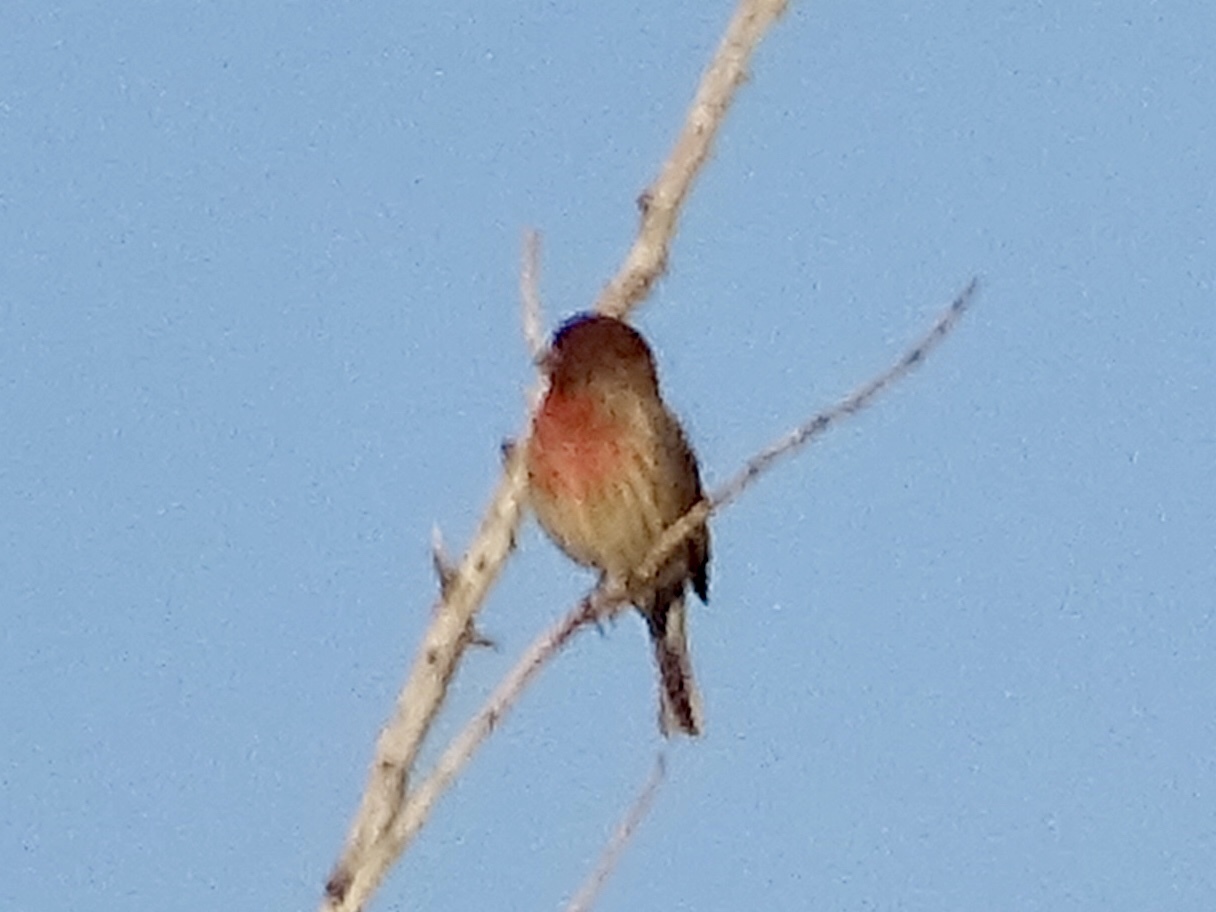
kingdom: Animalia
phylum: Chordata
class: Aves
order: Passeriformes
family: Fringillidae
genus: Haemorhous
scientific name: Haemorhous mexicanus
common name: House finch
